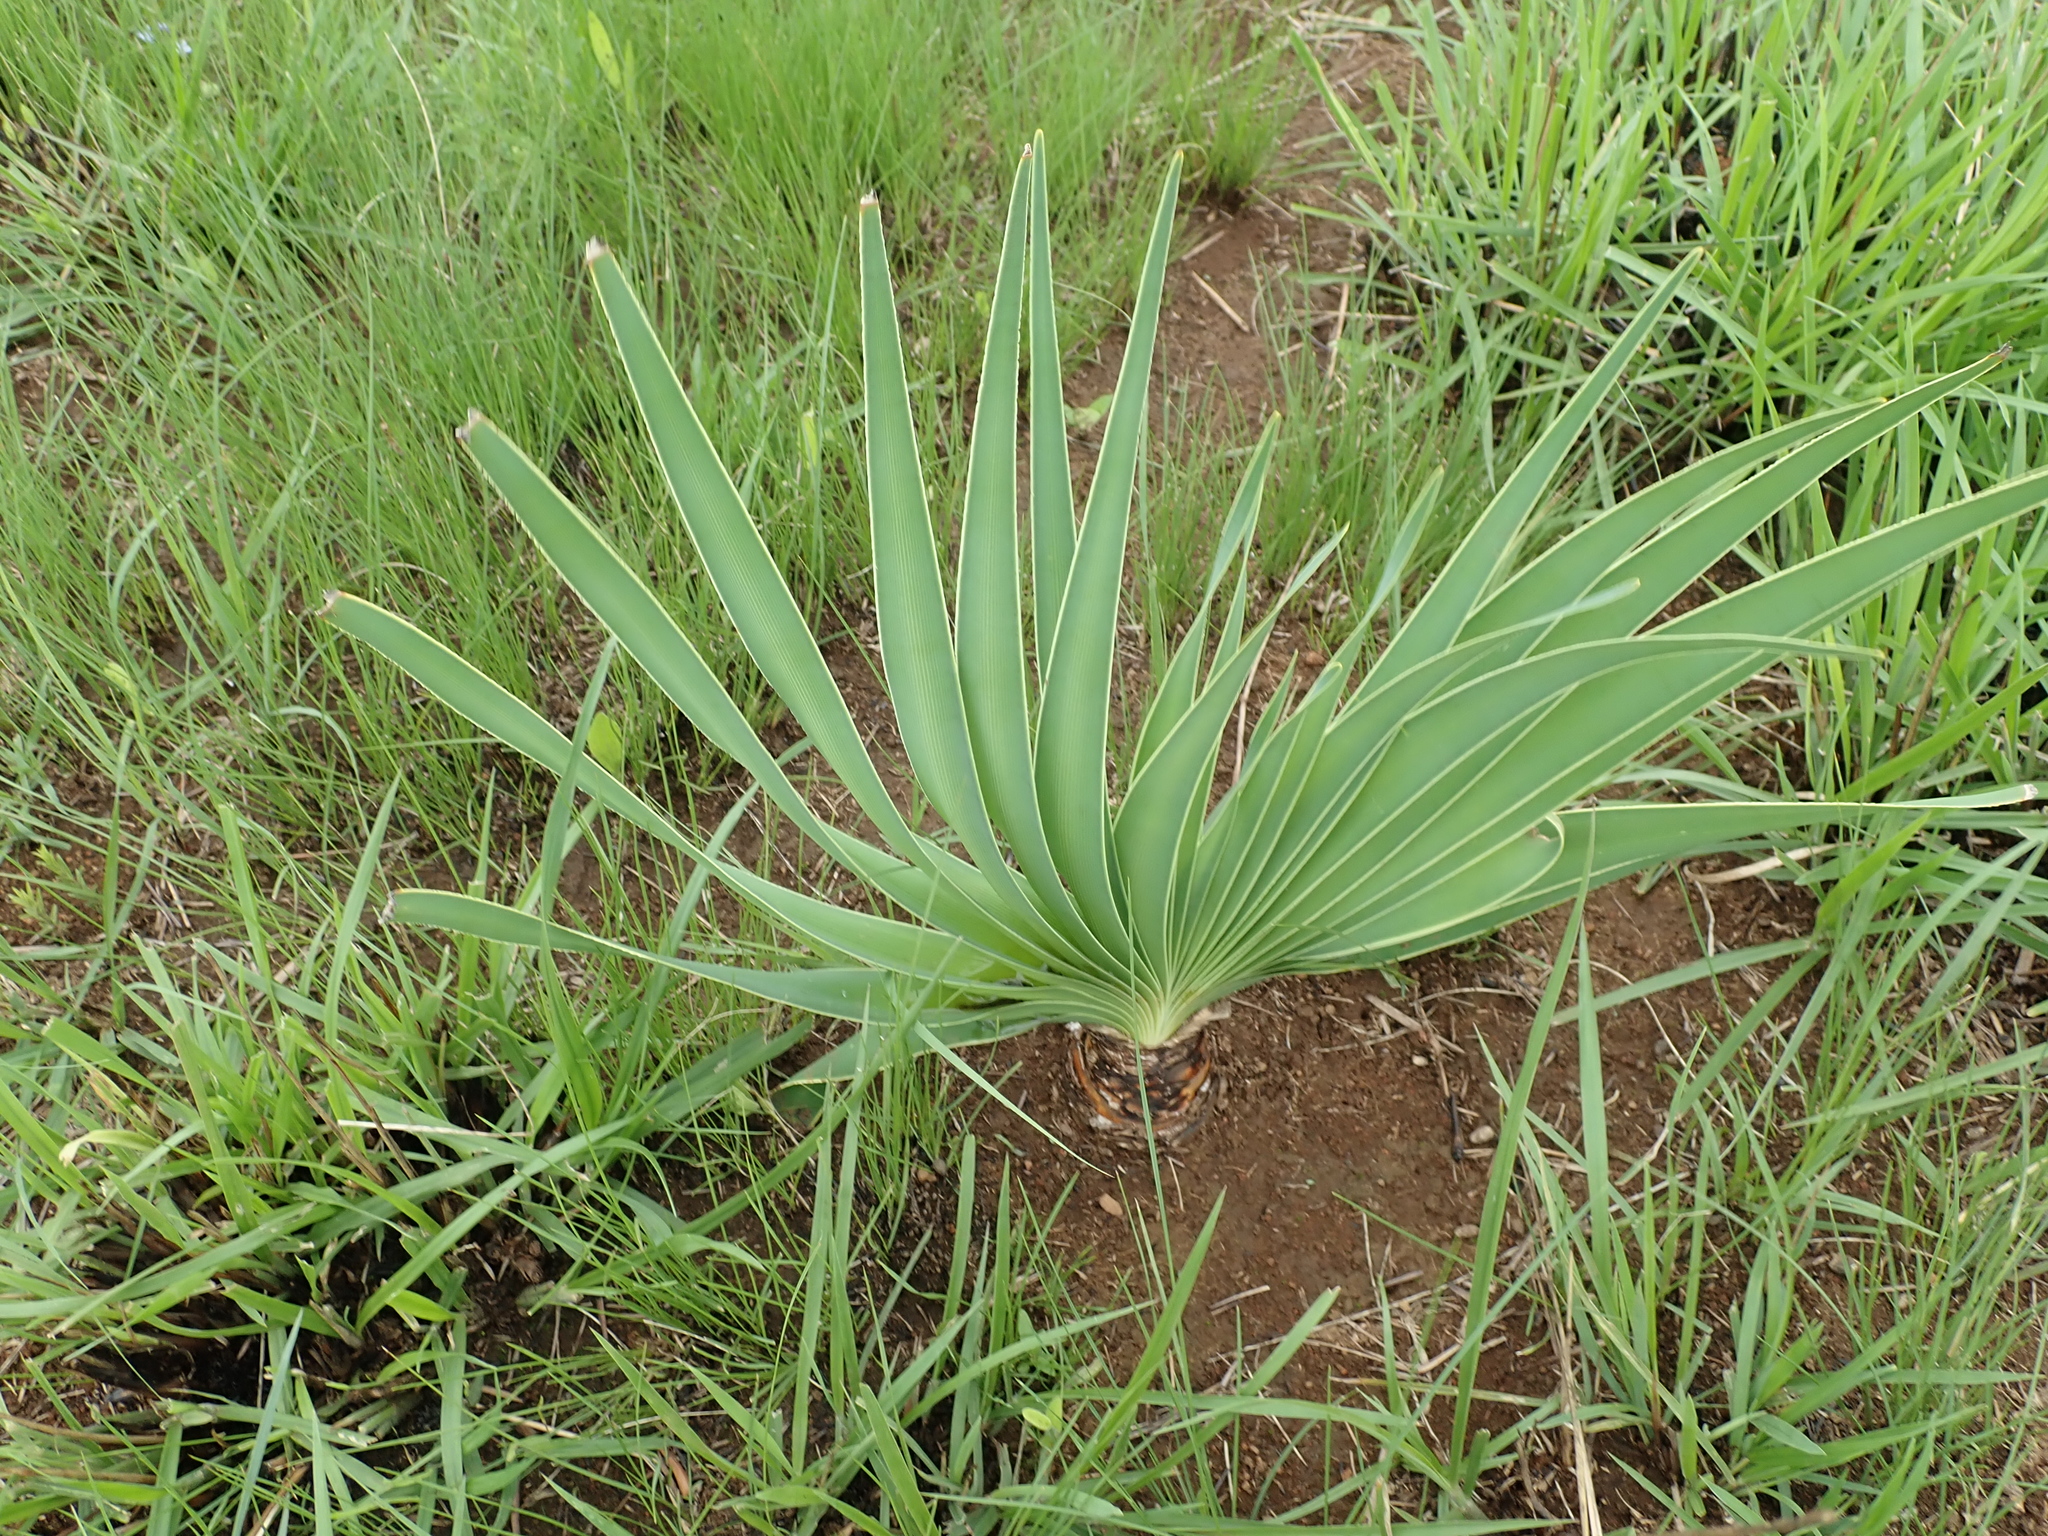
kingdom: Plantae
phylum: Tracheophyta
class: Liliopsida
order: Asparagales
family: Amaryllidaceae
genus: Boophone
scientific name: Boophone disticha
